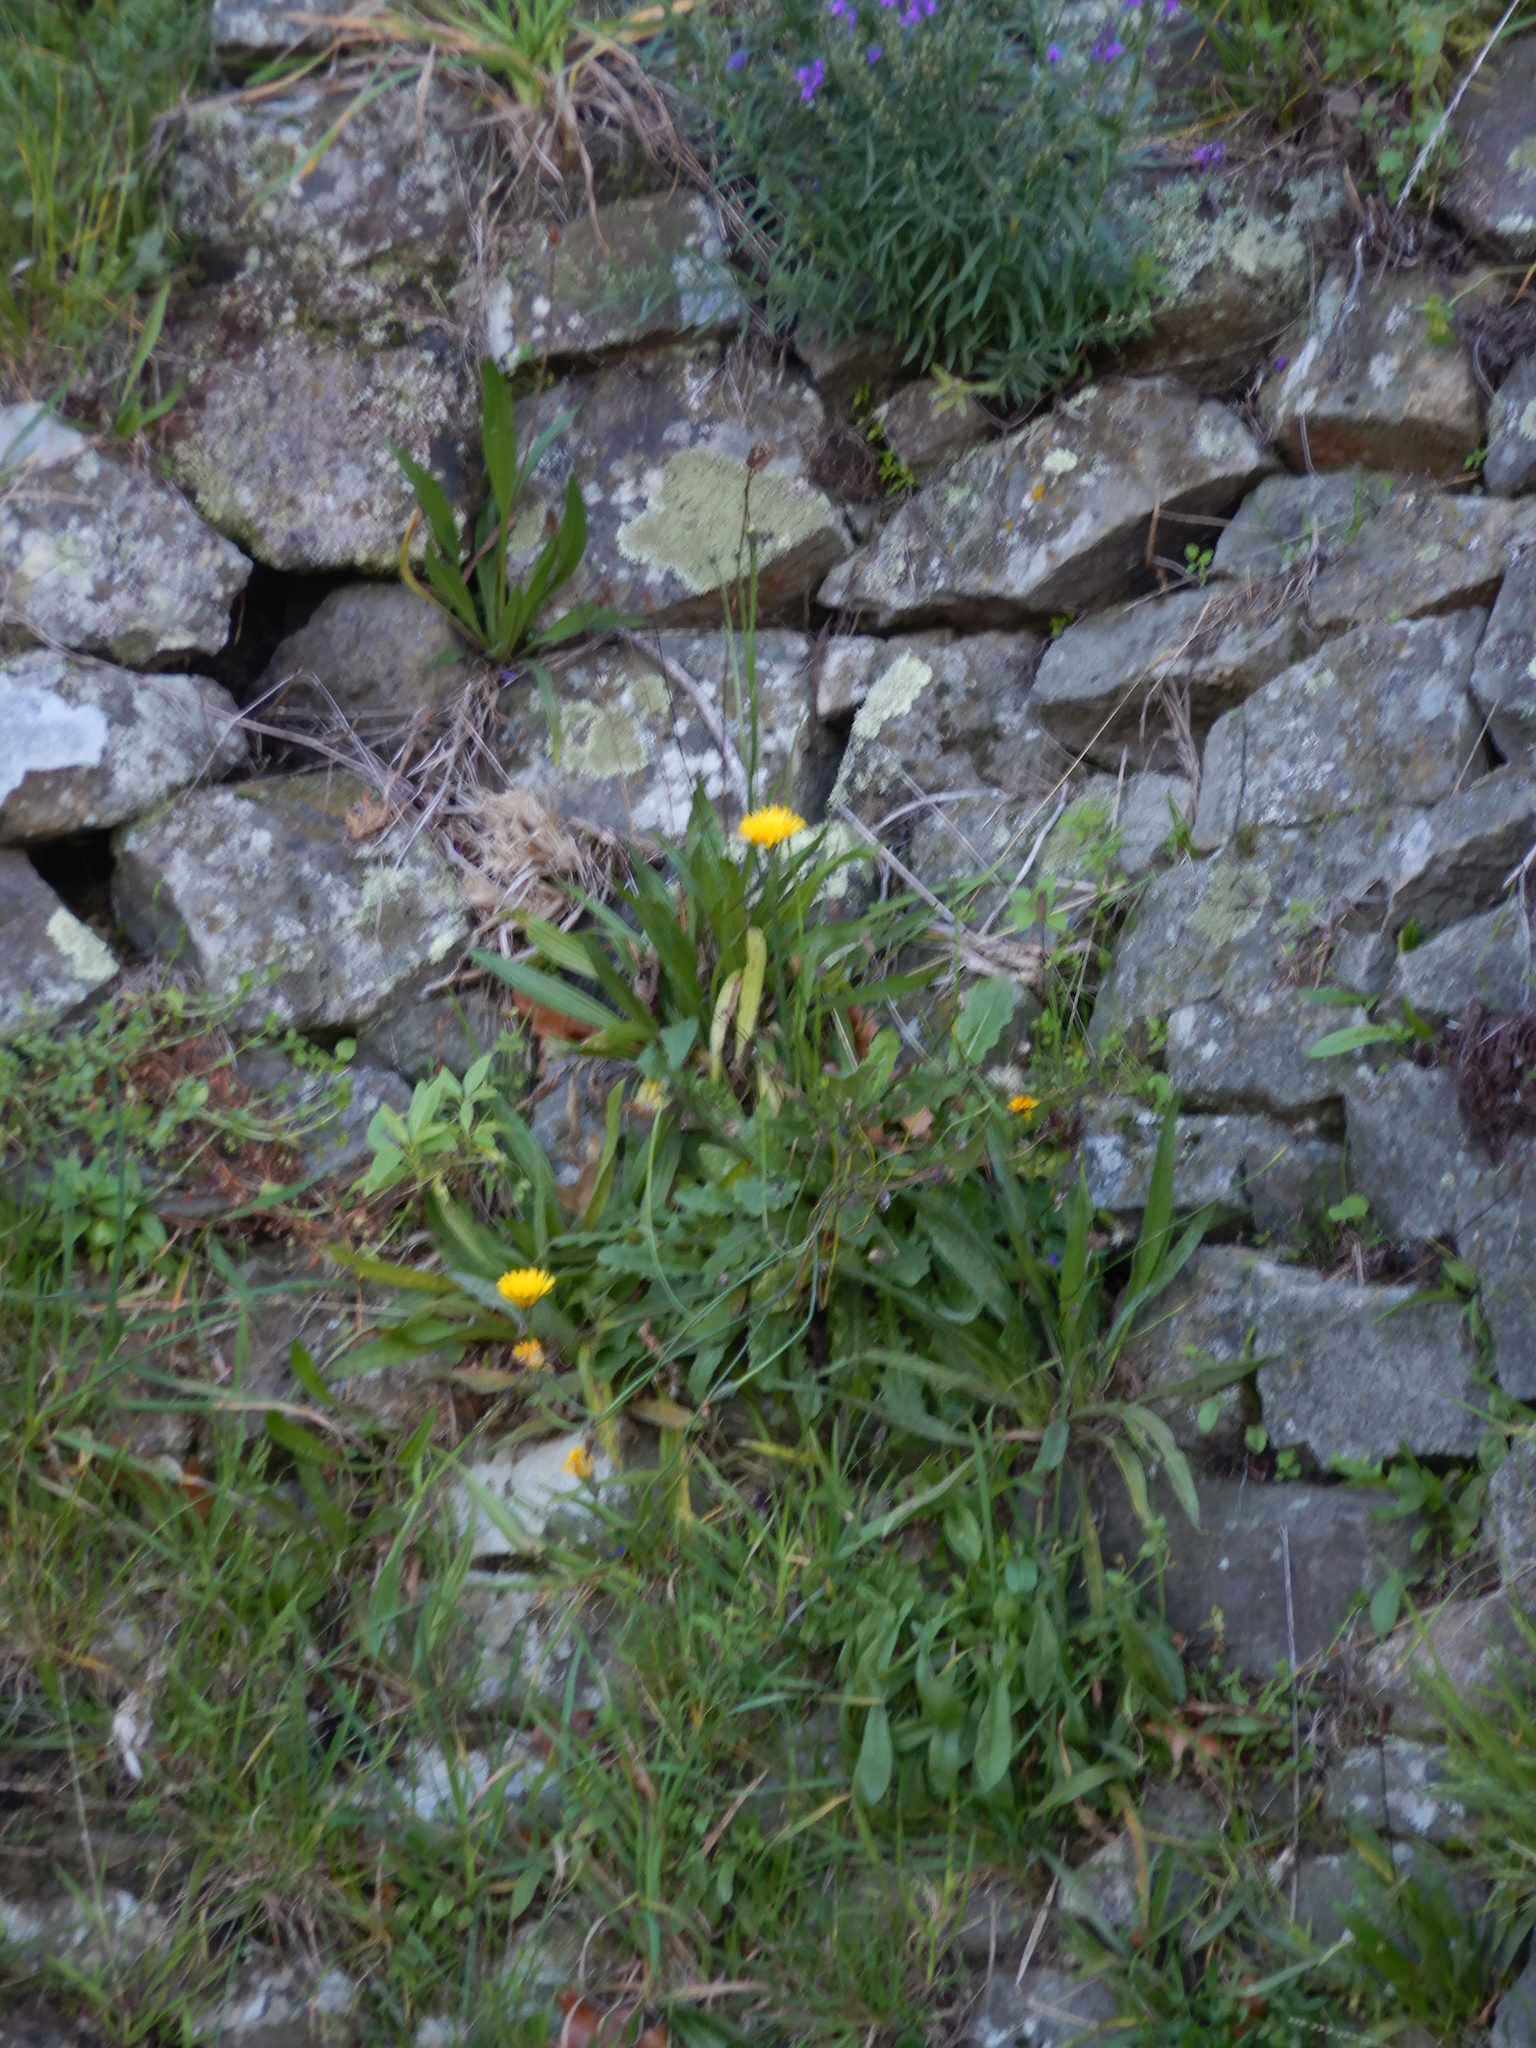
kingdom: Plantae
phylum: Tracheophyta
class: Magnoliopsida
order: Asterales
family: Asteraceae
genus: Hypochaeris
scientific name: Hypochaeris radicata
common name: Flatweed
